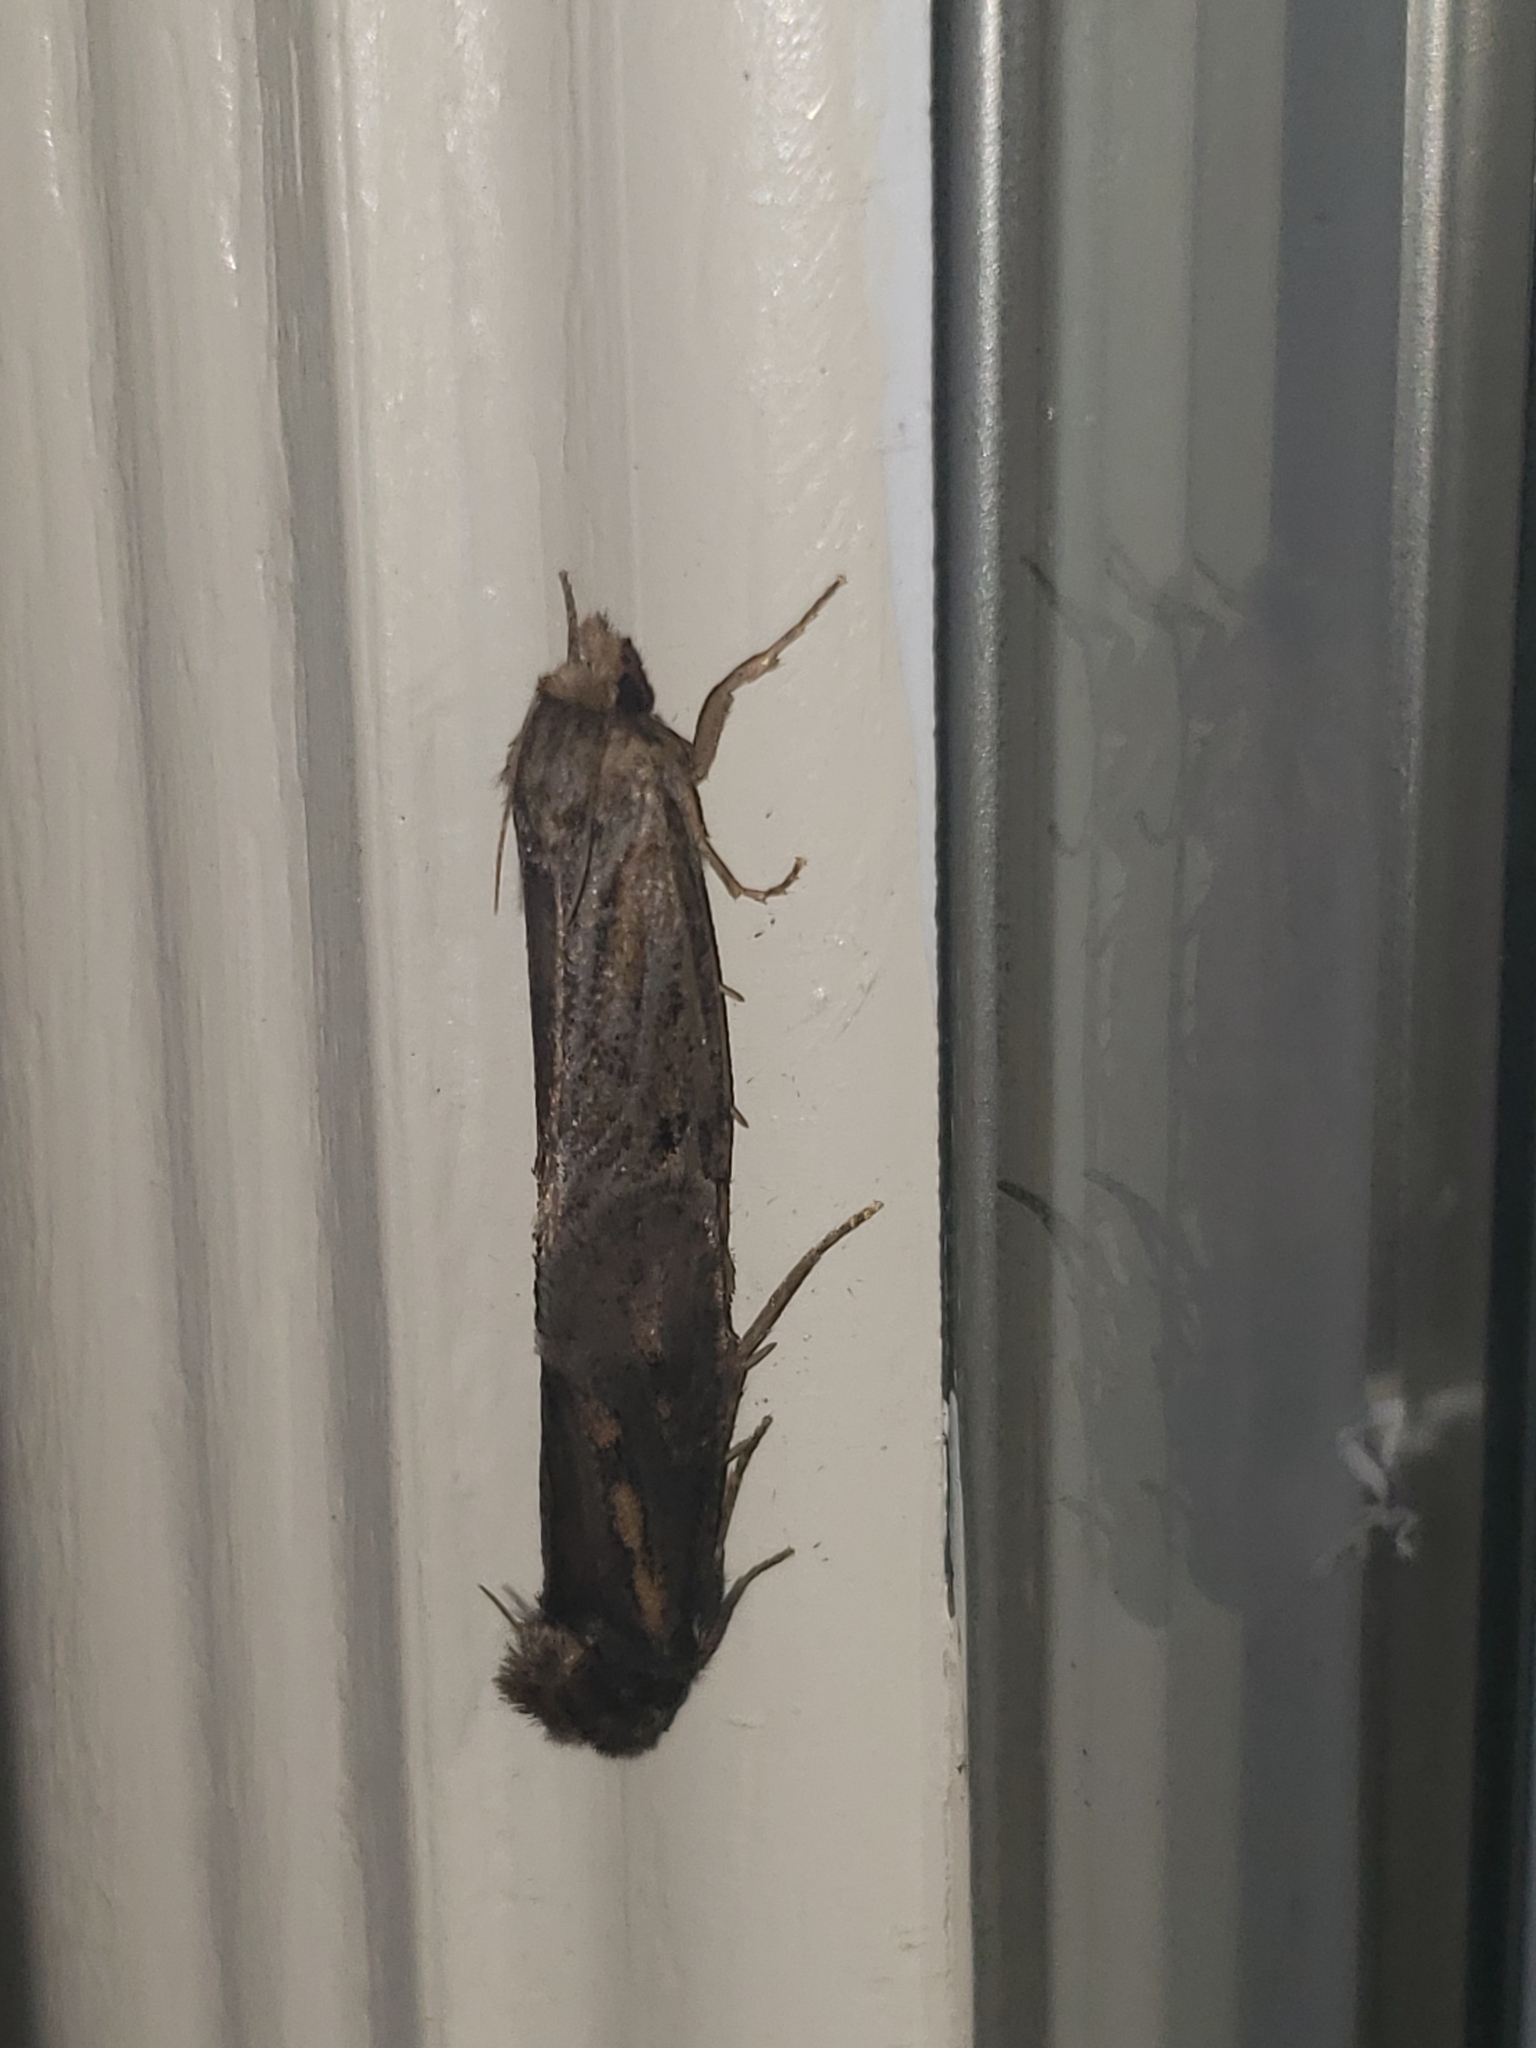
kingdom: Animalia
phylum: Arthropoda
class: Insecta
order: Lepidoptera
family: Tineidae
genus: Acrolophus
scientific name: Acrolophus popeanella
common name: Clemens' grass tubeworm moth
